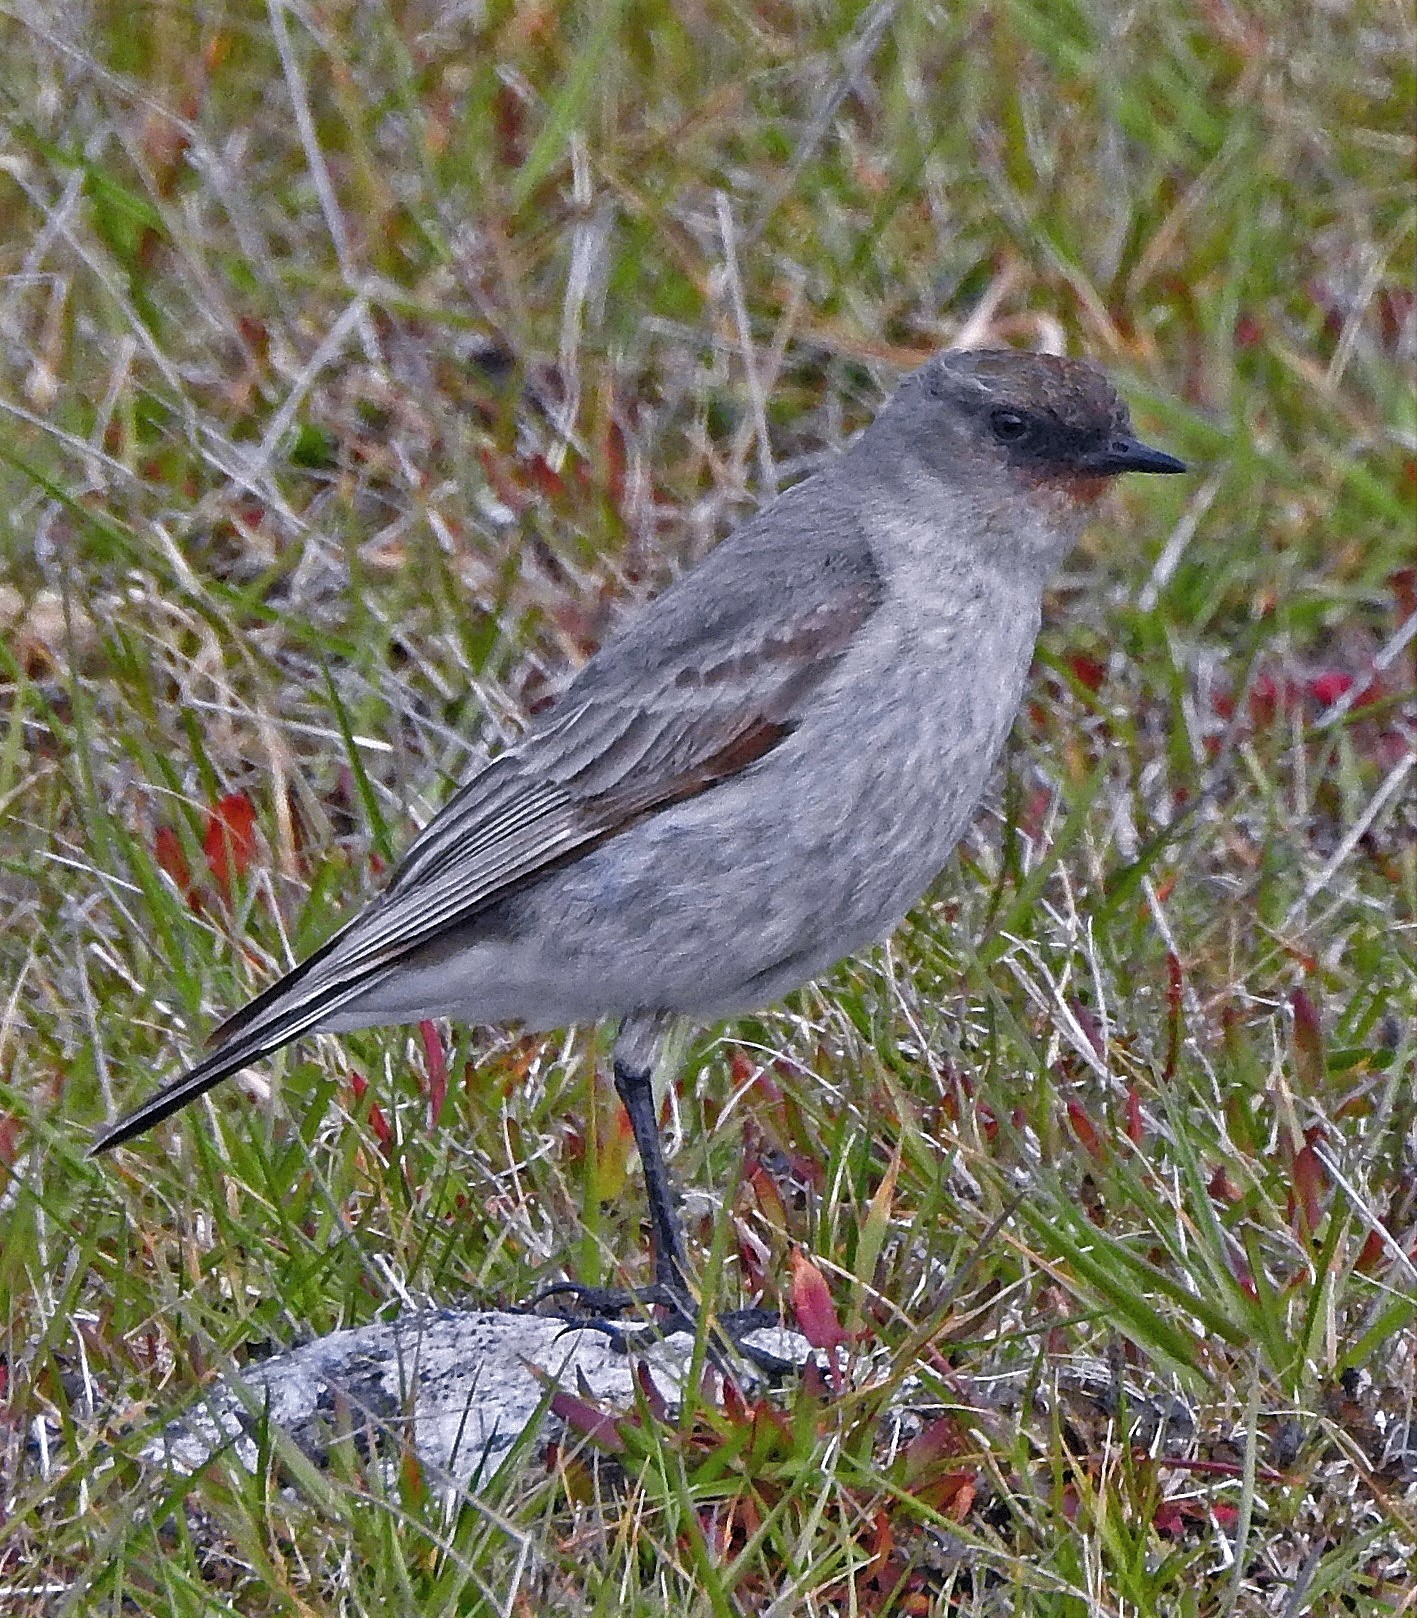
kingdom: Animalia
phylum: Chordata
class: Aves
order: Passeriformes
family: Tyrannidae
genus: Muscisaxicola
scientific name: Muscisaxicola maclovianus
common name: Dark-faced ground tyrant
